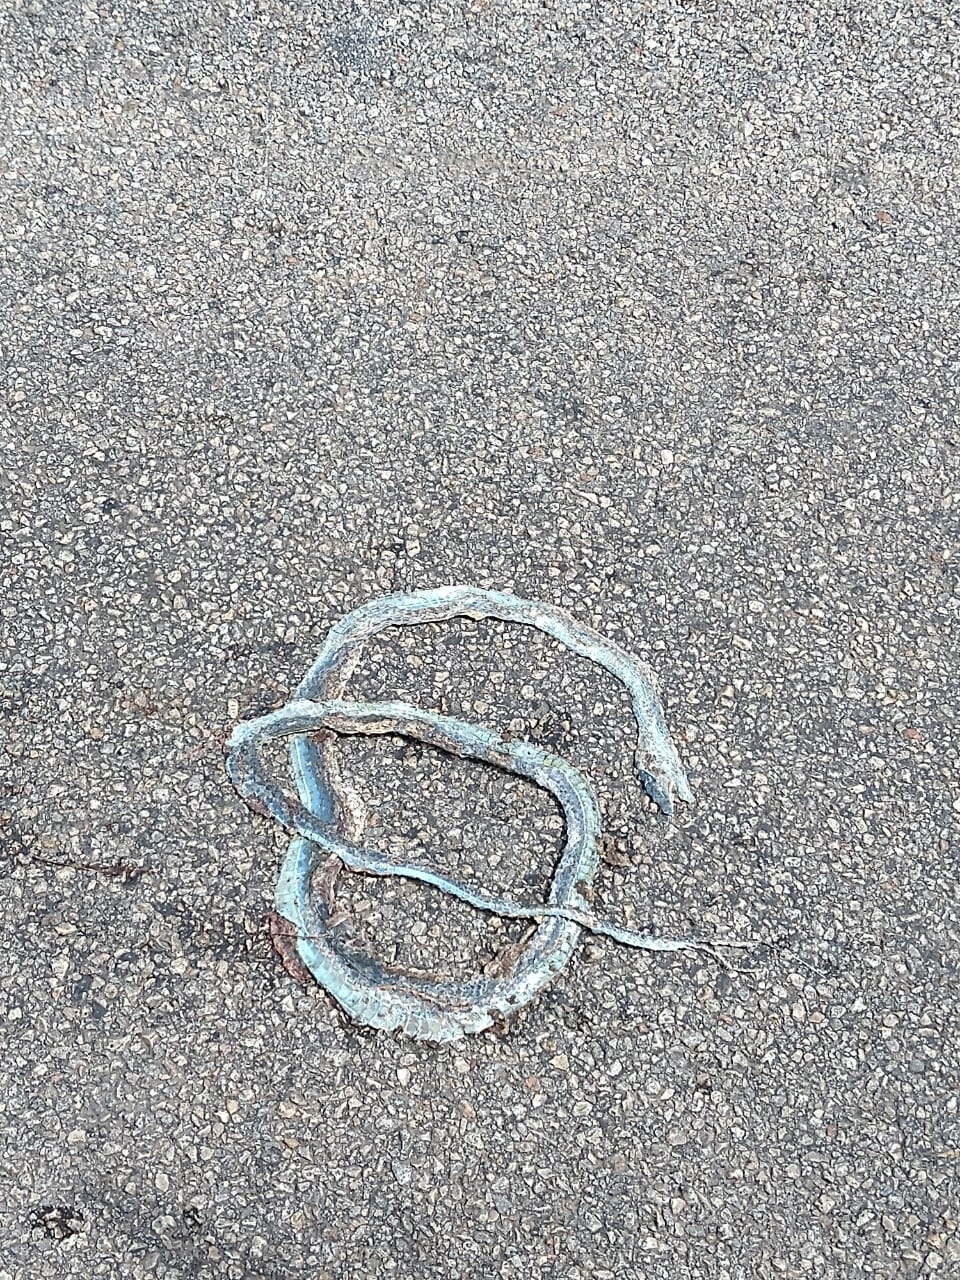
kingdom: Animalia
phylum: Chordata
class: Squamata
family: Colubridae
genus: Oxybelis
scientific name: Oxybelis fulgidus
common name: Green vine snake
